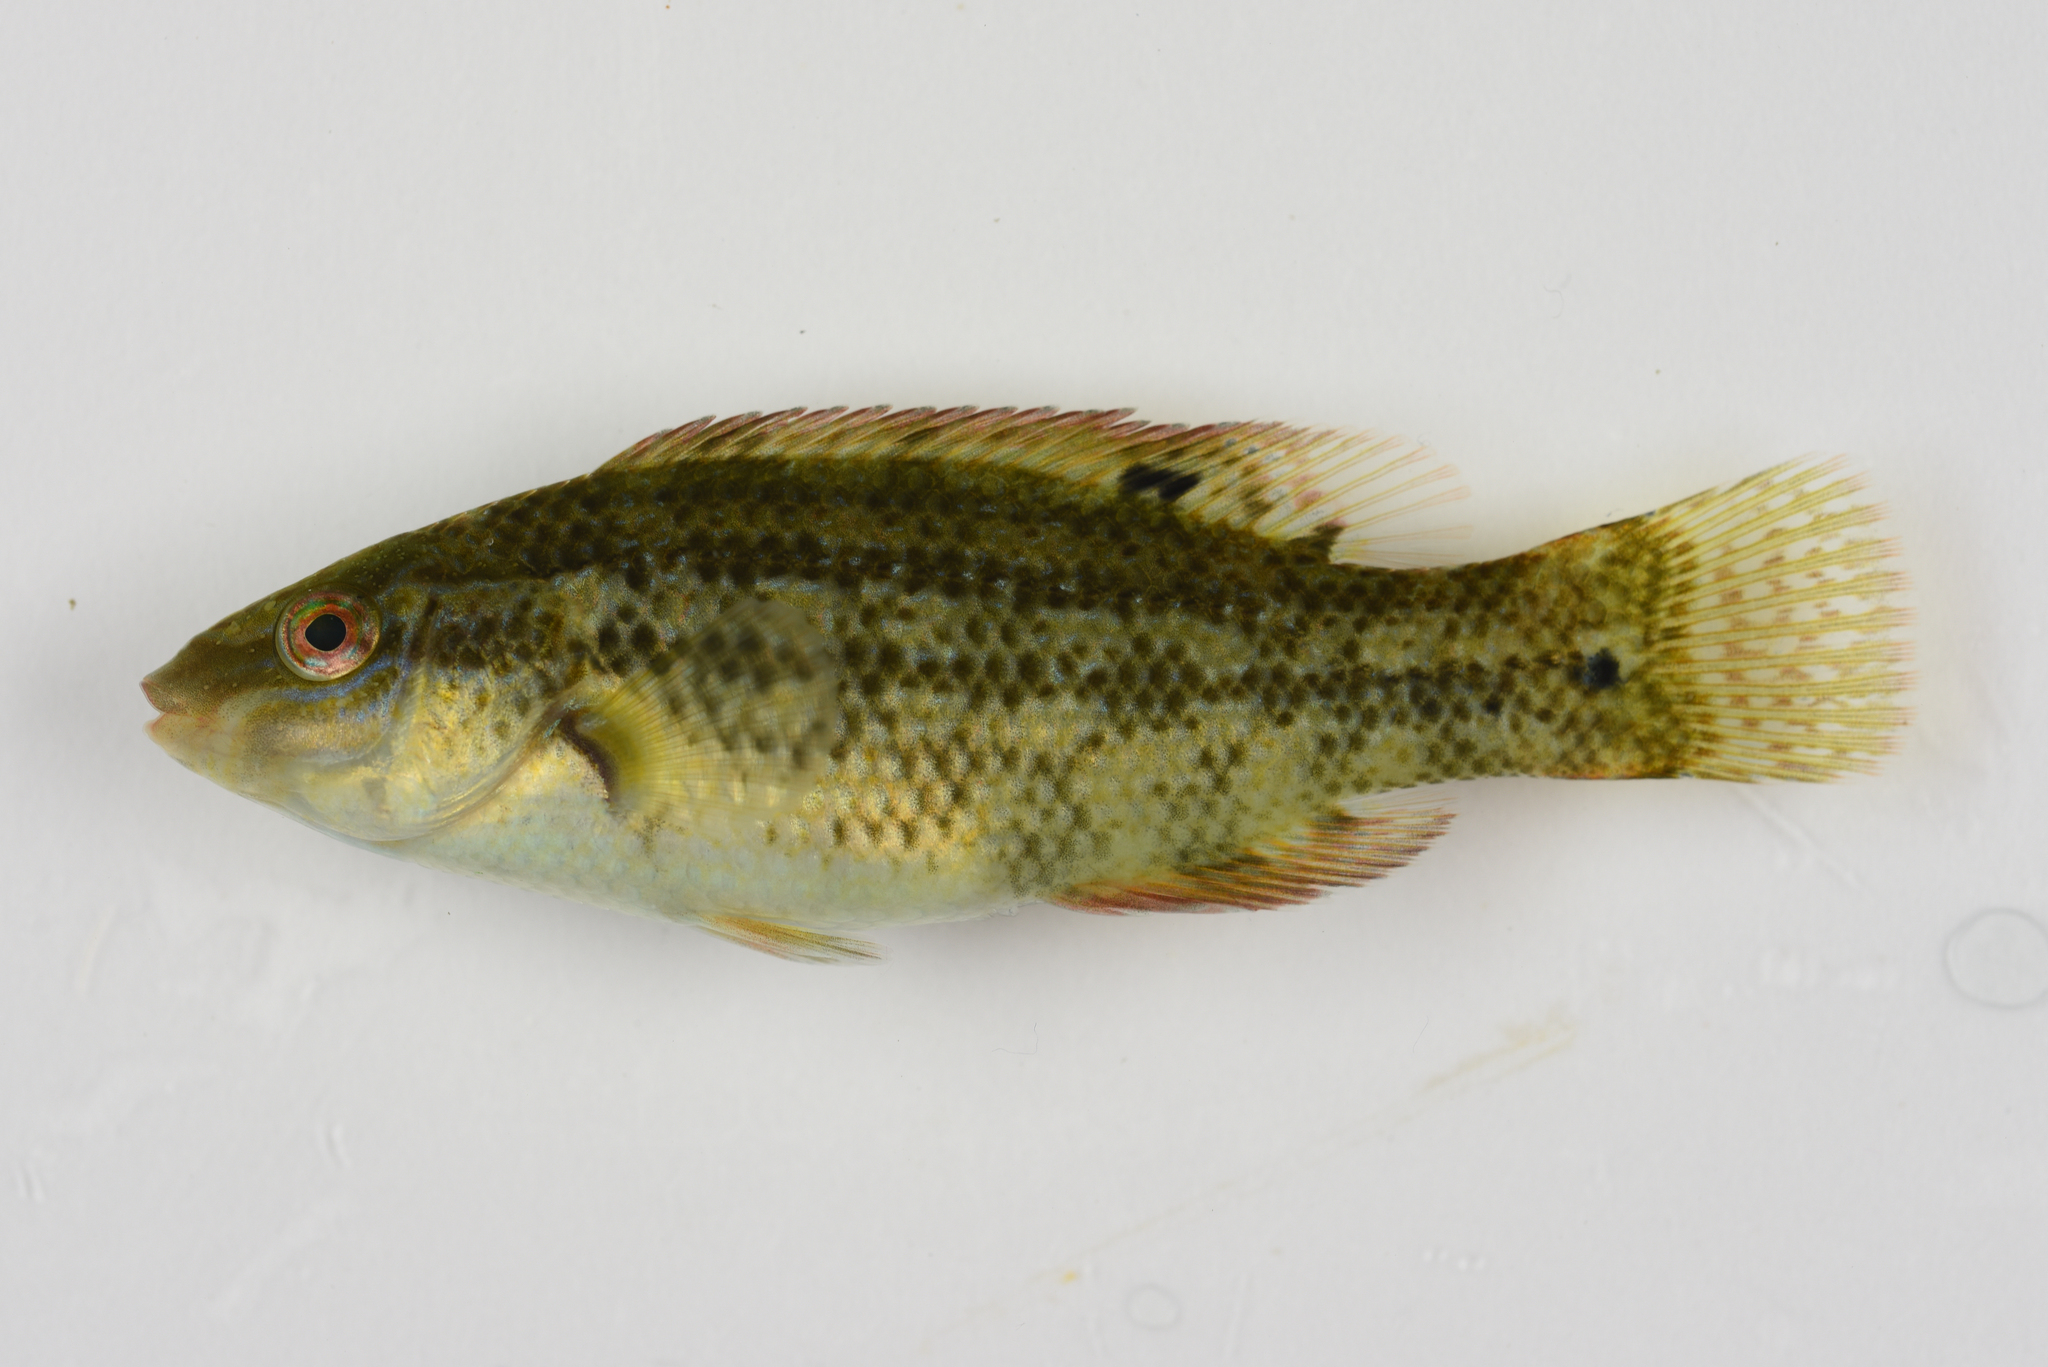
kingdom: Animalia
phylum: Chordata
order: Perciformes
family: Labridae
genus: Symphodus
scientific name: Symphodus bailloni
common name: Baillon's wrasse
